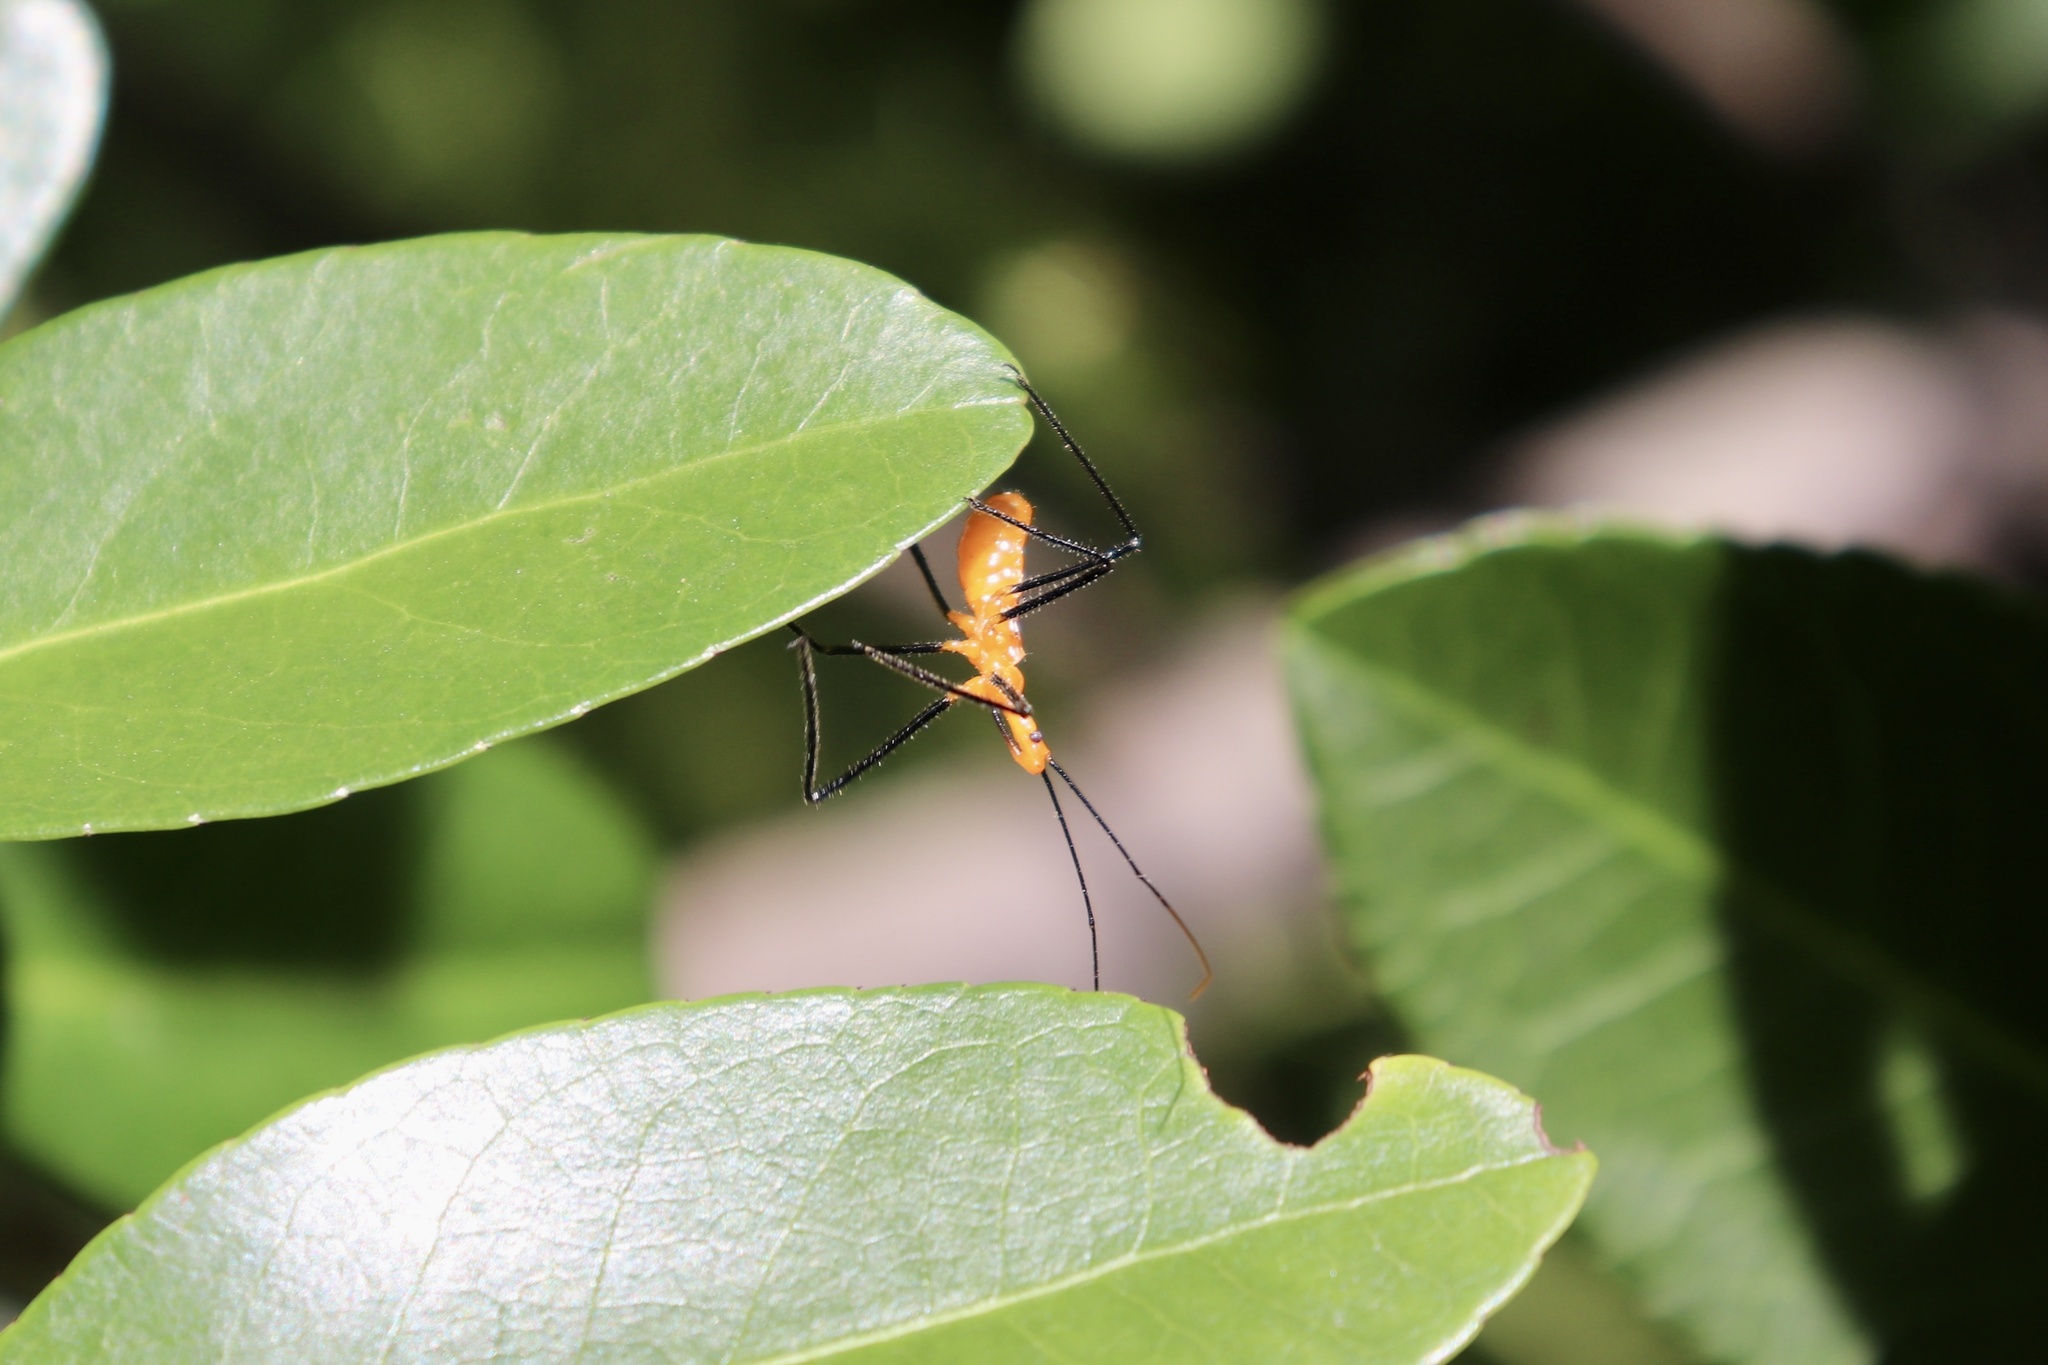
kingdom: Animalia
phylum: Arthropoda
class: Insecta
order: Hemiptera
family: Reduviidae
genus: Zelus
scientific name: Zelus longipes
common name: Milkweed assassin bug
